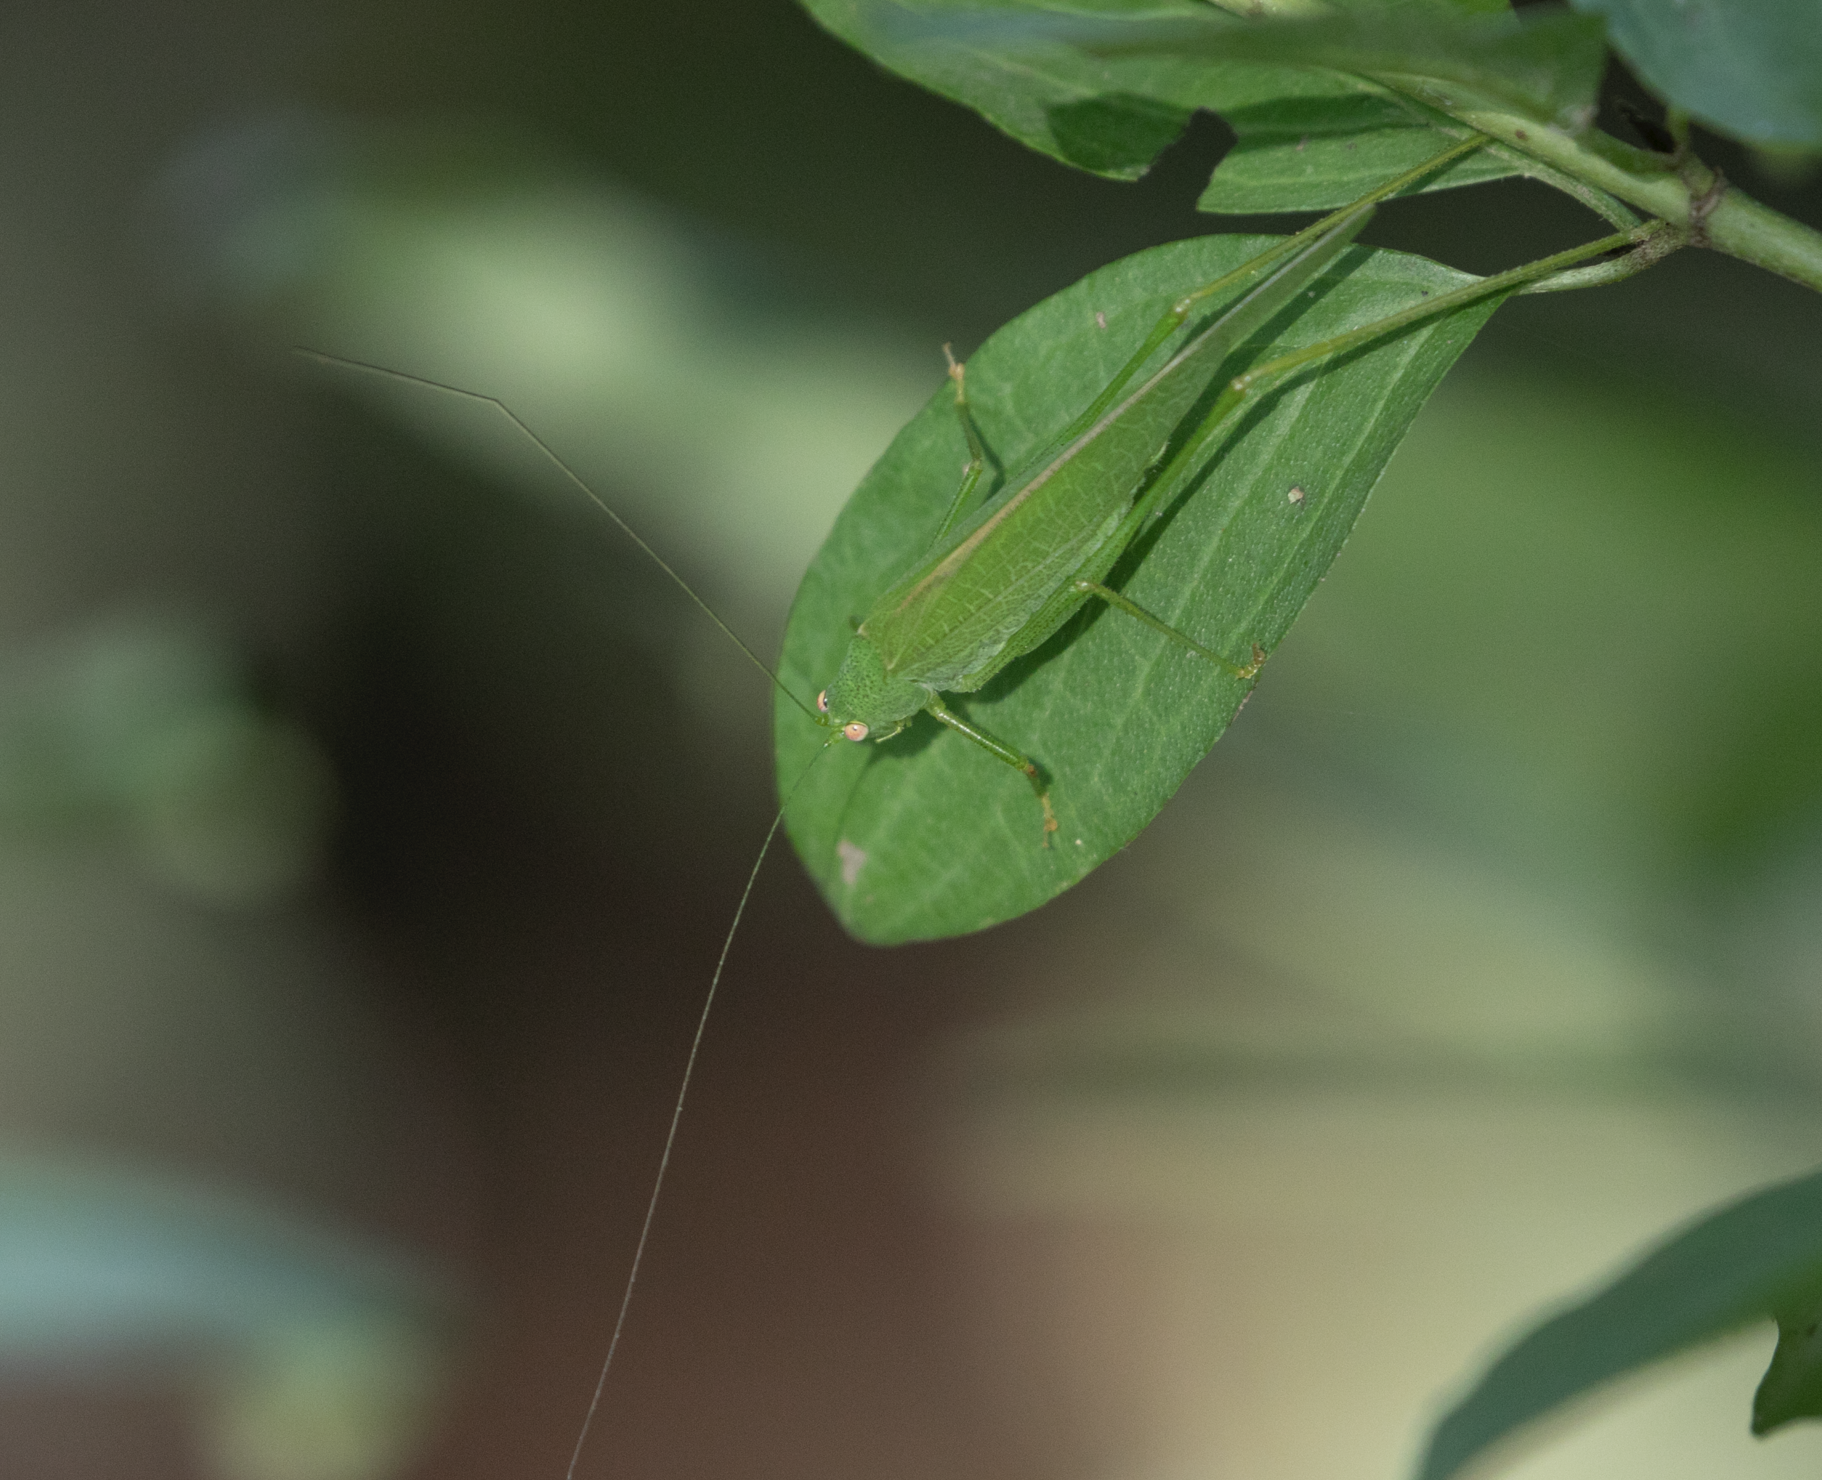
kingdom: Animalia
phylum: Arthropoda
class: Insecta
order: Orthoptera
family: Tettigoniidae
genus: Phaneroptera
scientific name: Phaneroptera nana
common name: Southern sickle bush-cricket
